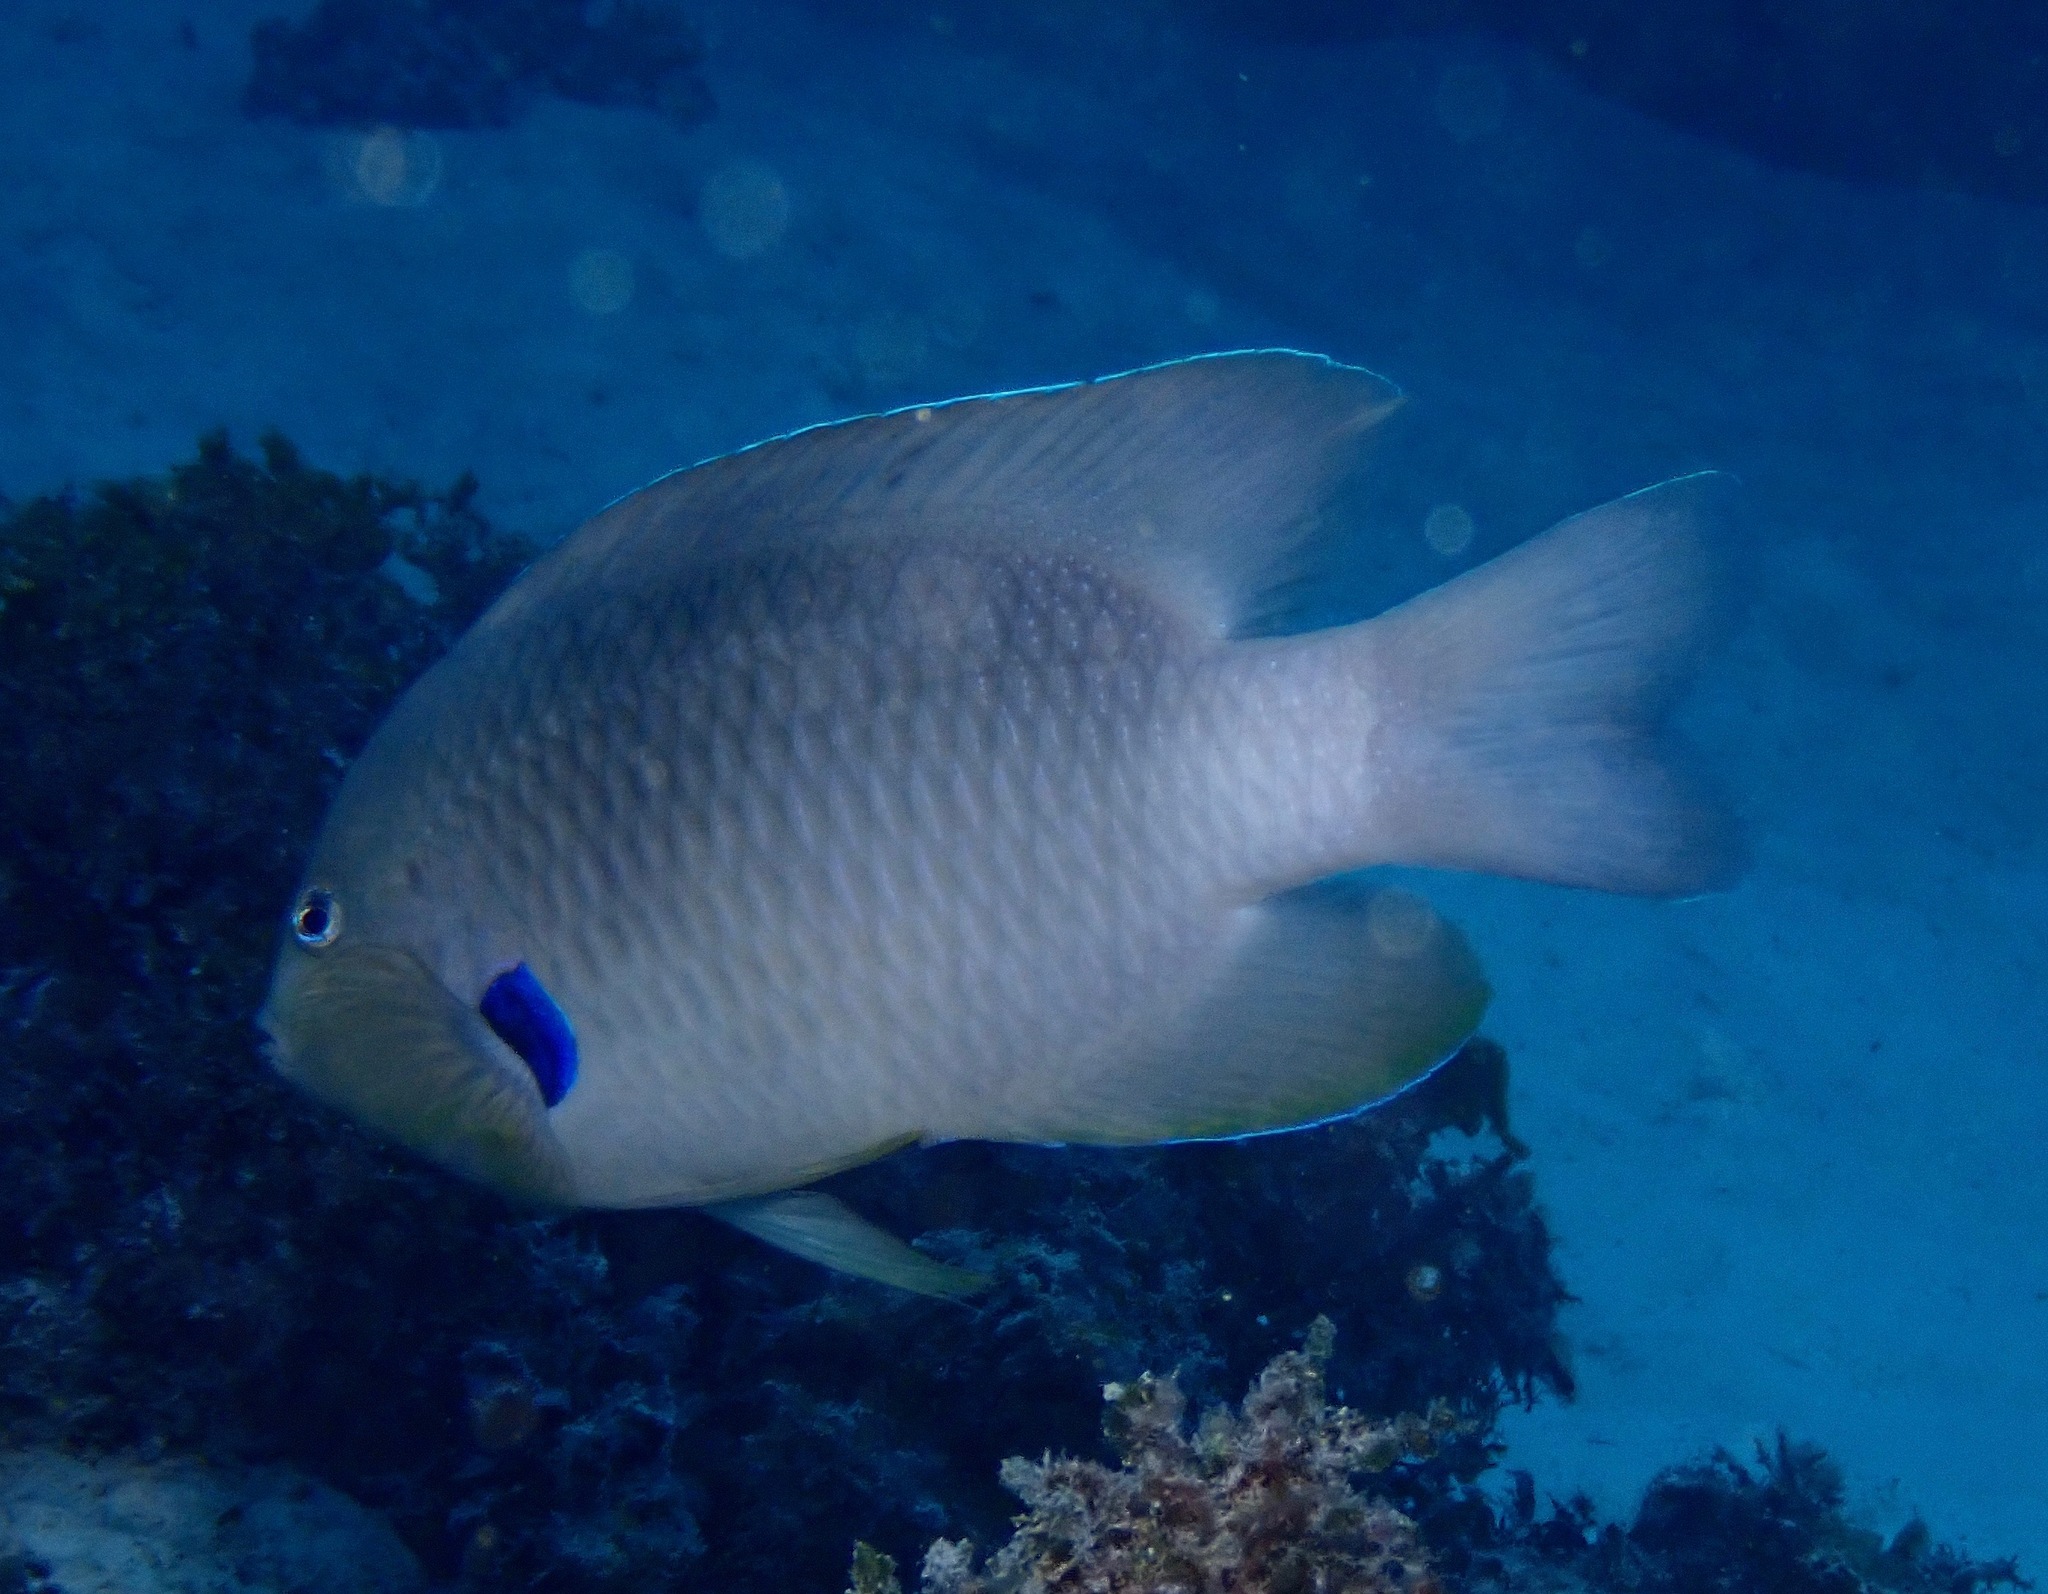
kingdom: Animalia
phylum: Chordata
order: Perciformes
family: Pomacentridae
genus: Dischistodus
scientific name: Dischistodus prosopotaenia
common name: Honey-head damsel
